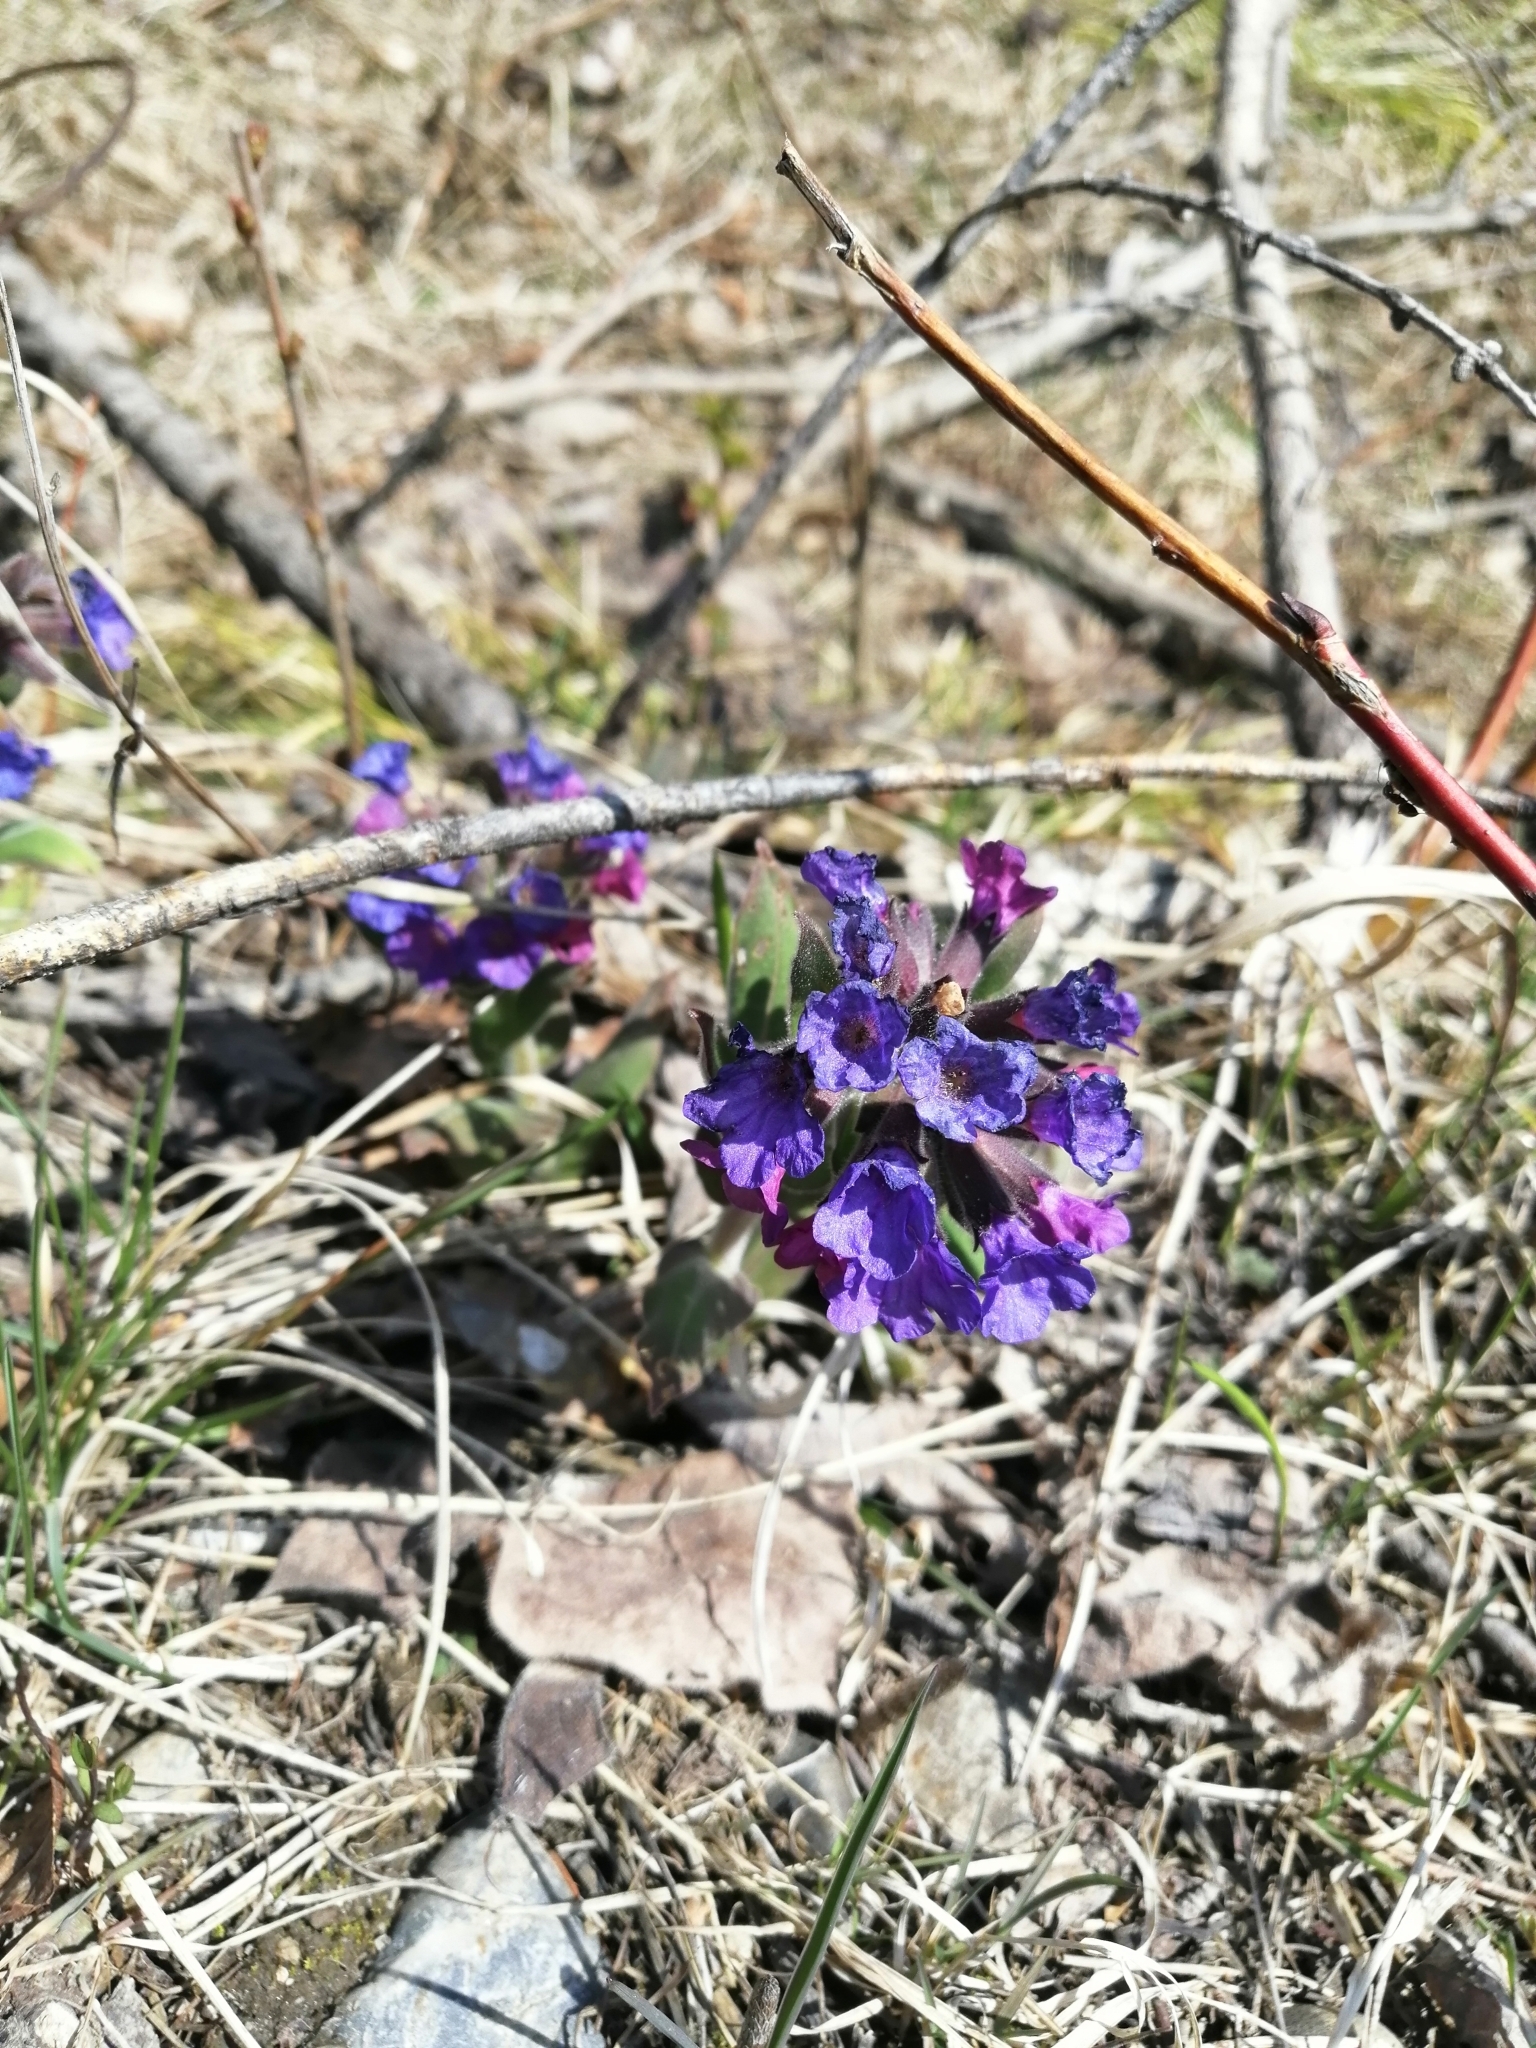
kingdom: Plantae
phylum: Tracheophyta
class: Magnoliopsida
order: Boraginales
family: Boraginaceae
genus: Pulmonaria
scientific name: Pulmonaria mollis
